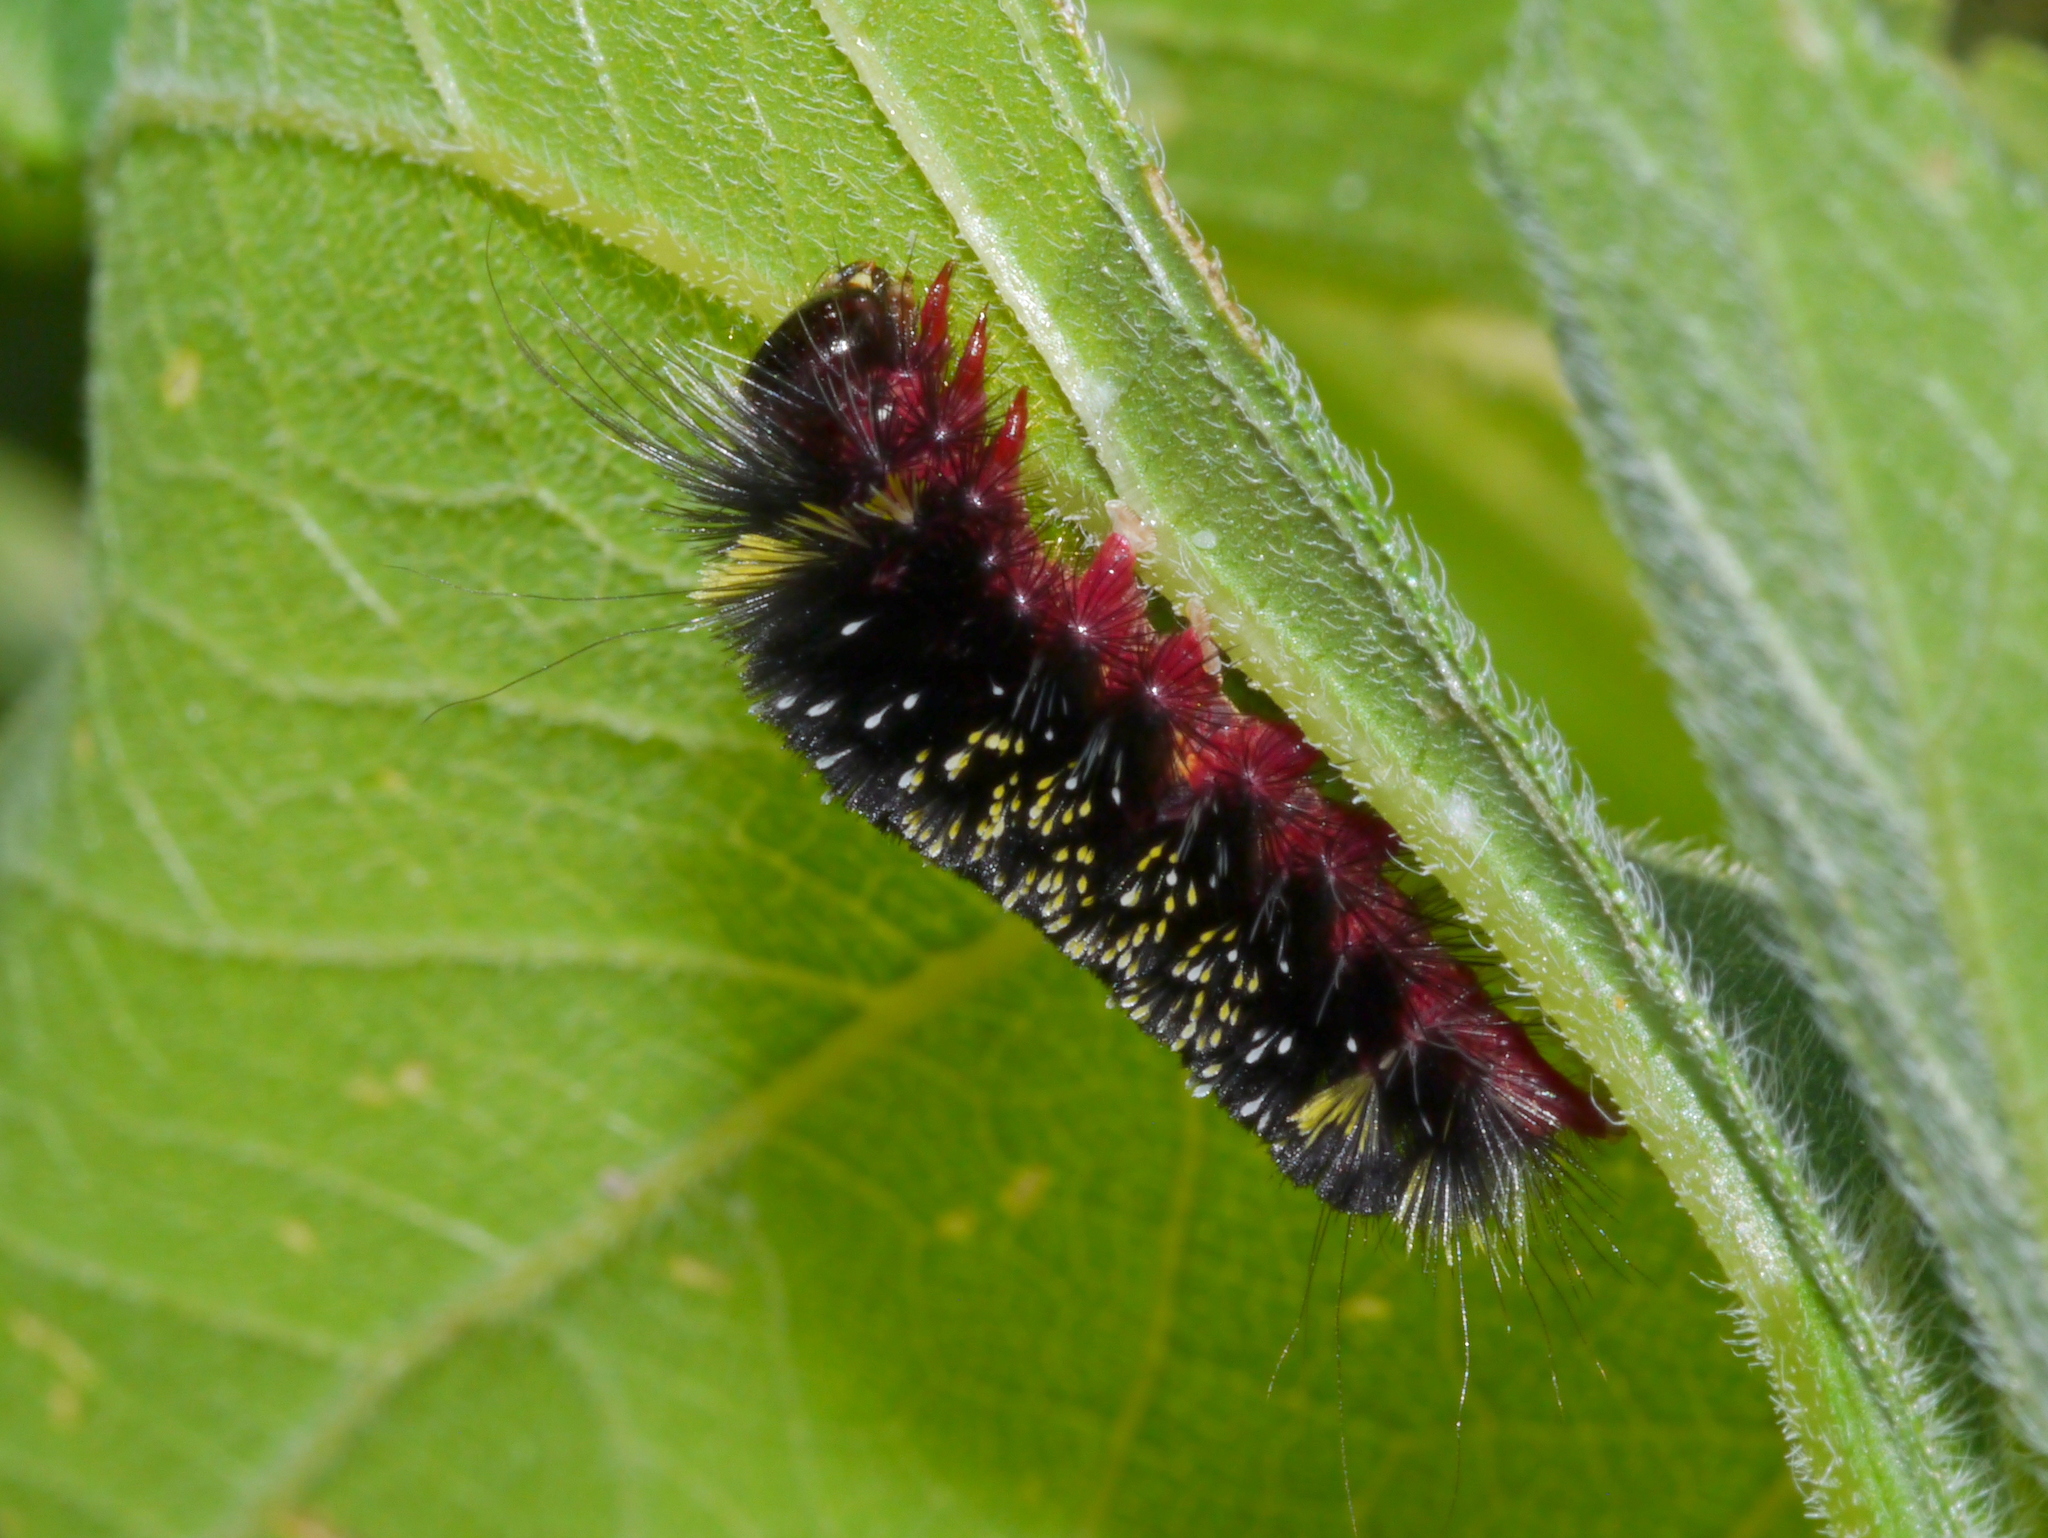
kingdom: Animalia
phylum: Arthropoda
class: Insecta
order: Lepidoptera
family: Erebidae
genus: Hypocrisias
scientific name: Hypocrisias minima
